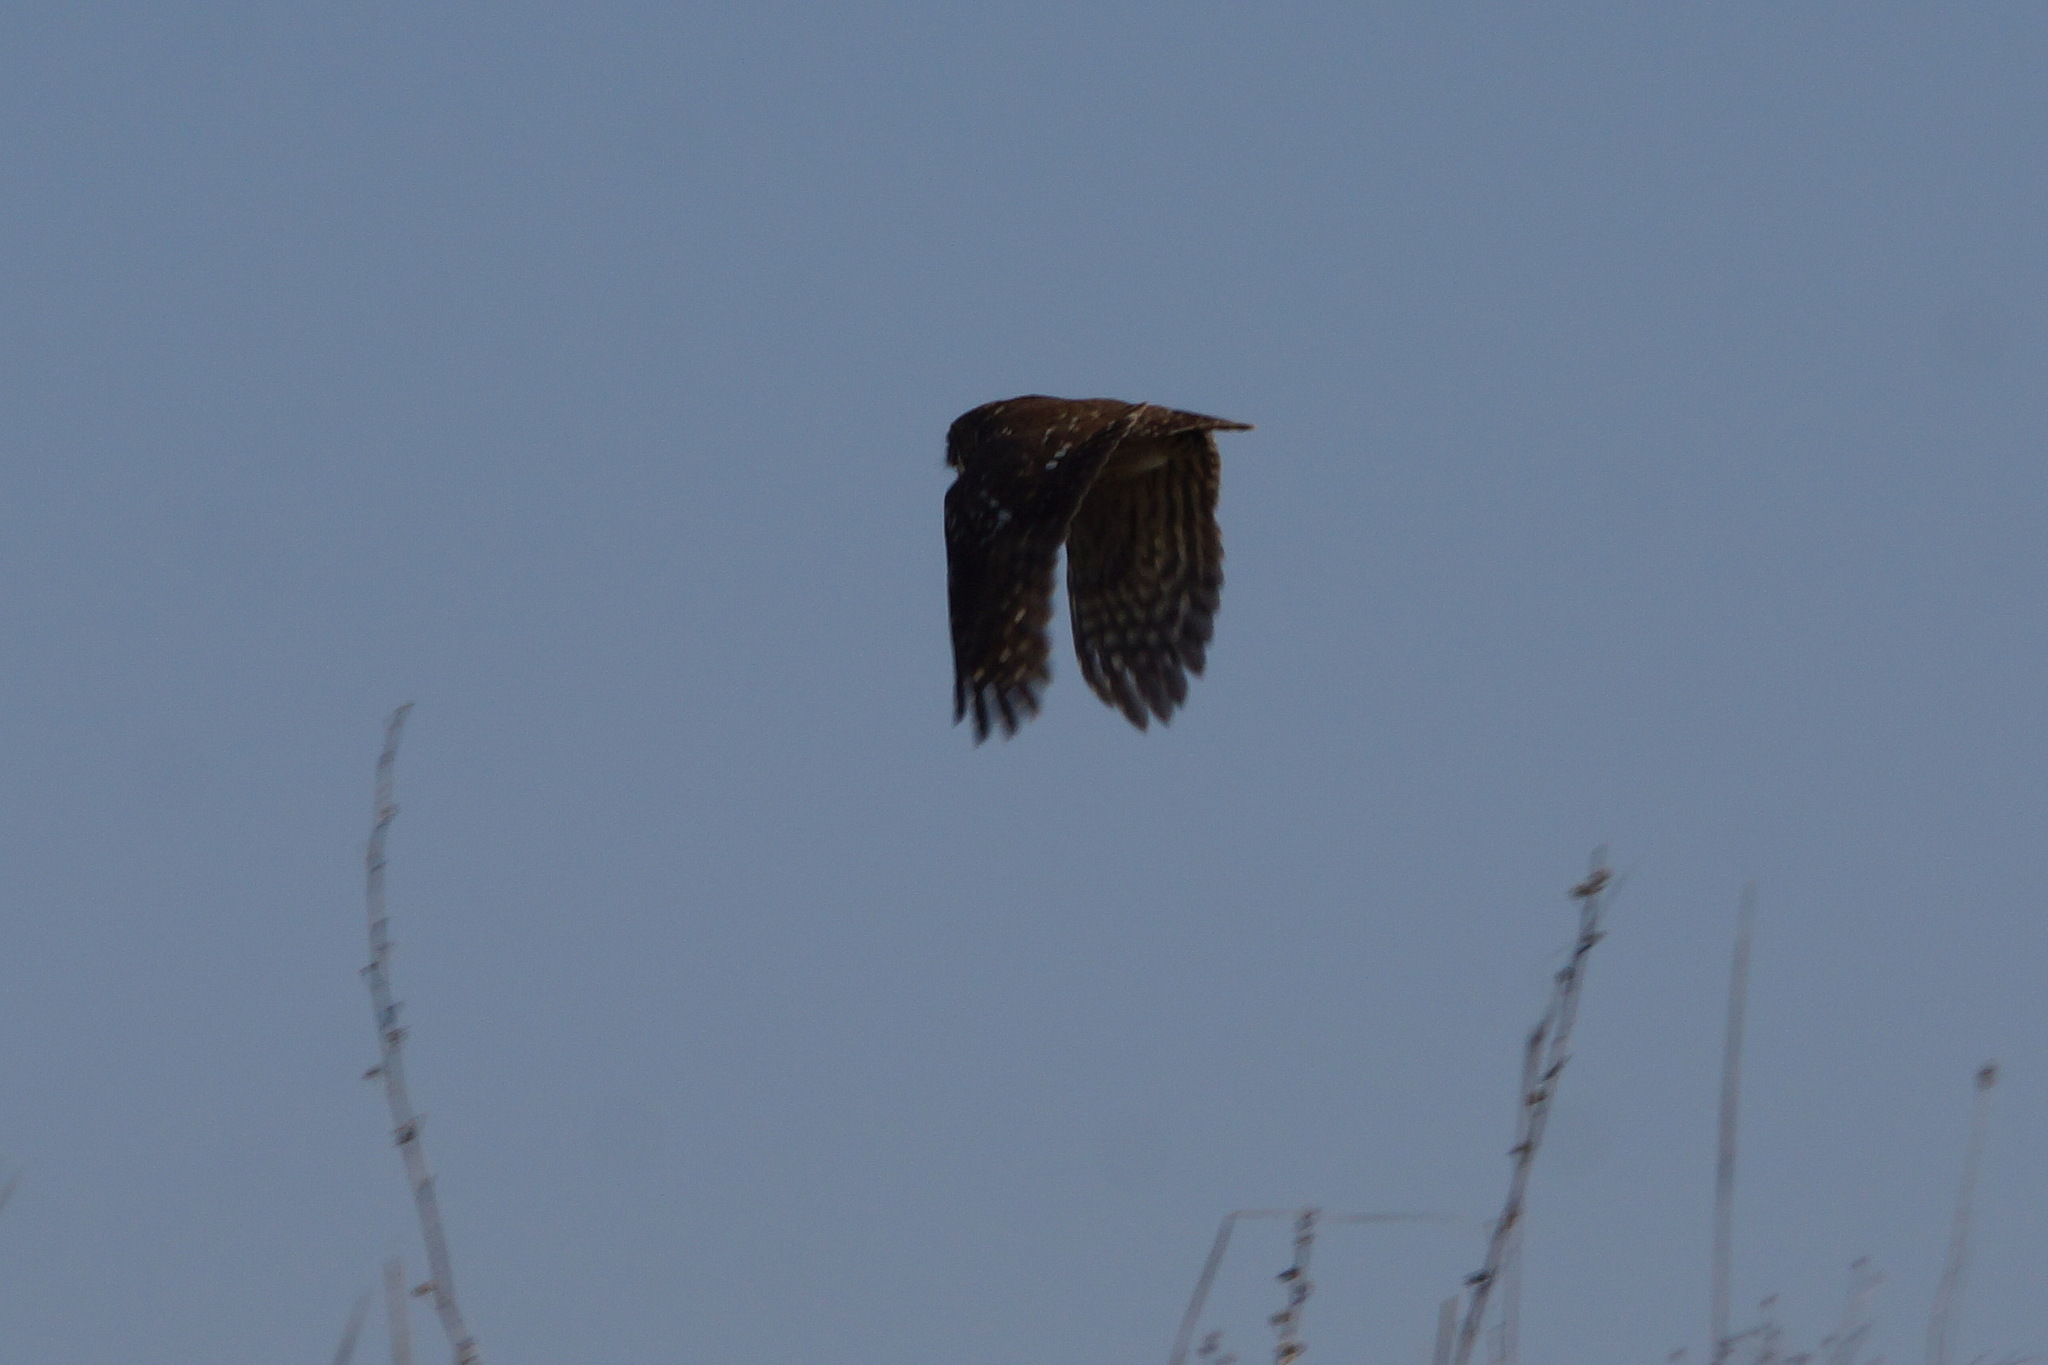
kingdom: Animalia
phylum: Chordata
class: Aves
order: Strigiformes
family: Strigidae
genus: Athene
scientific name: Athene noctua
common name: Little owl
